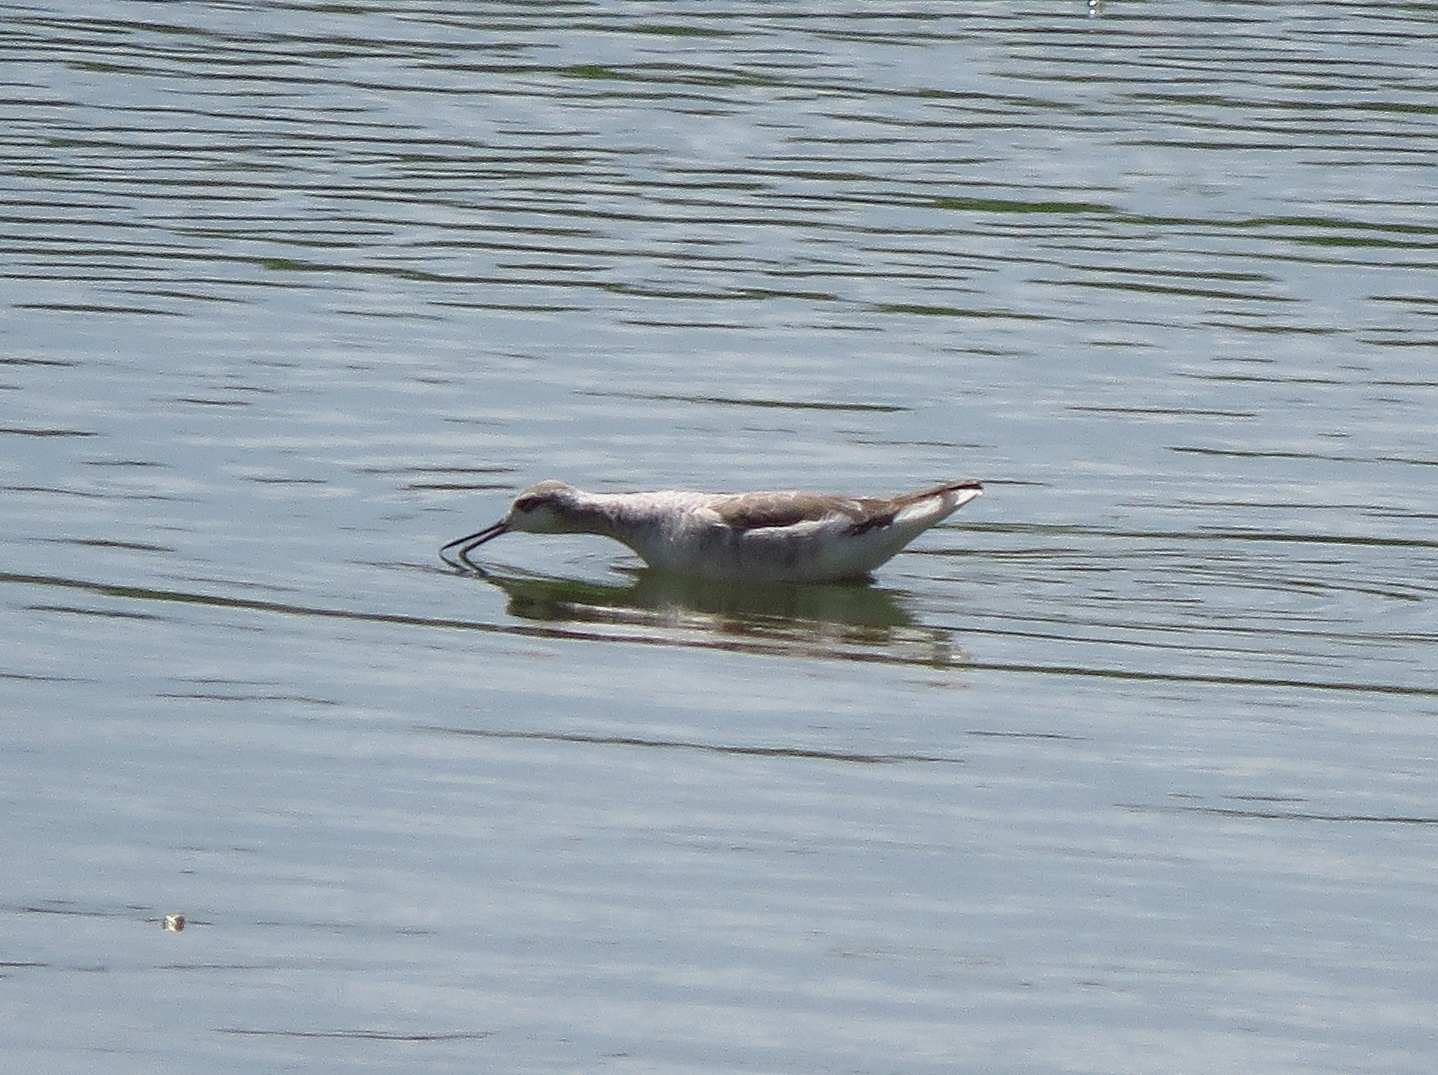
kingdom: Animalia
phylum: Chordata
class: Aves
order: Charadriiformes
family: Scolopacidae
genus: Phalaropus
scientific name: Phalaropus tricolor
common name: Wilson's phalarope
